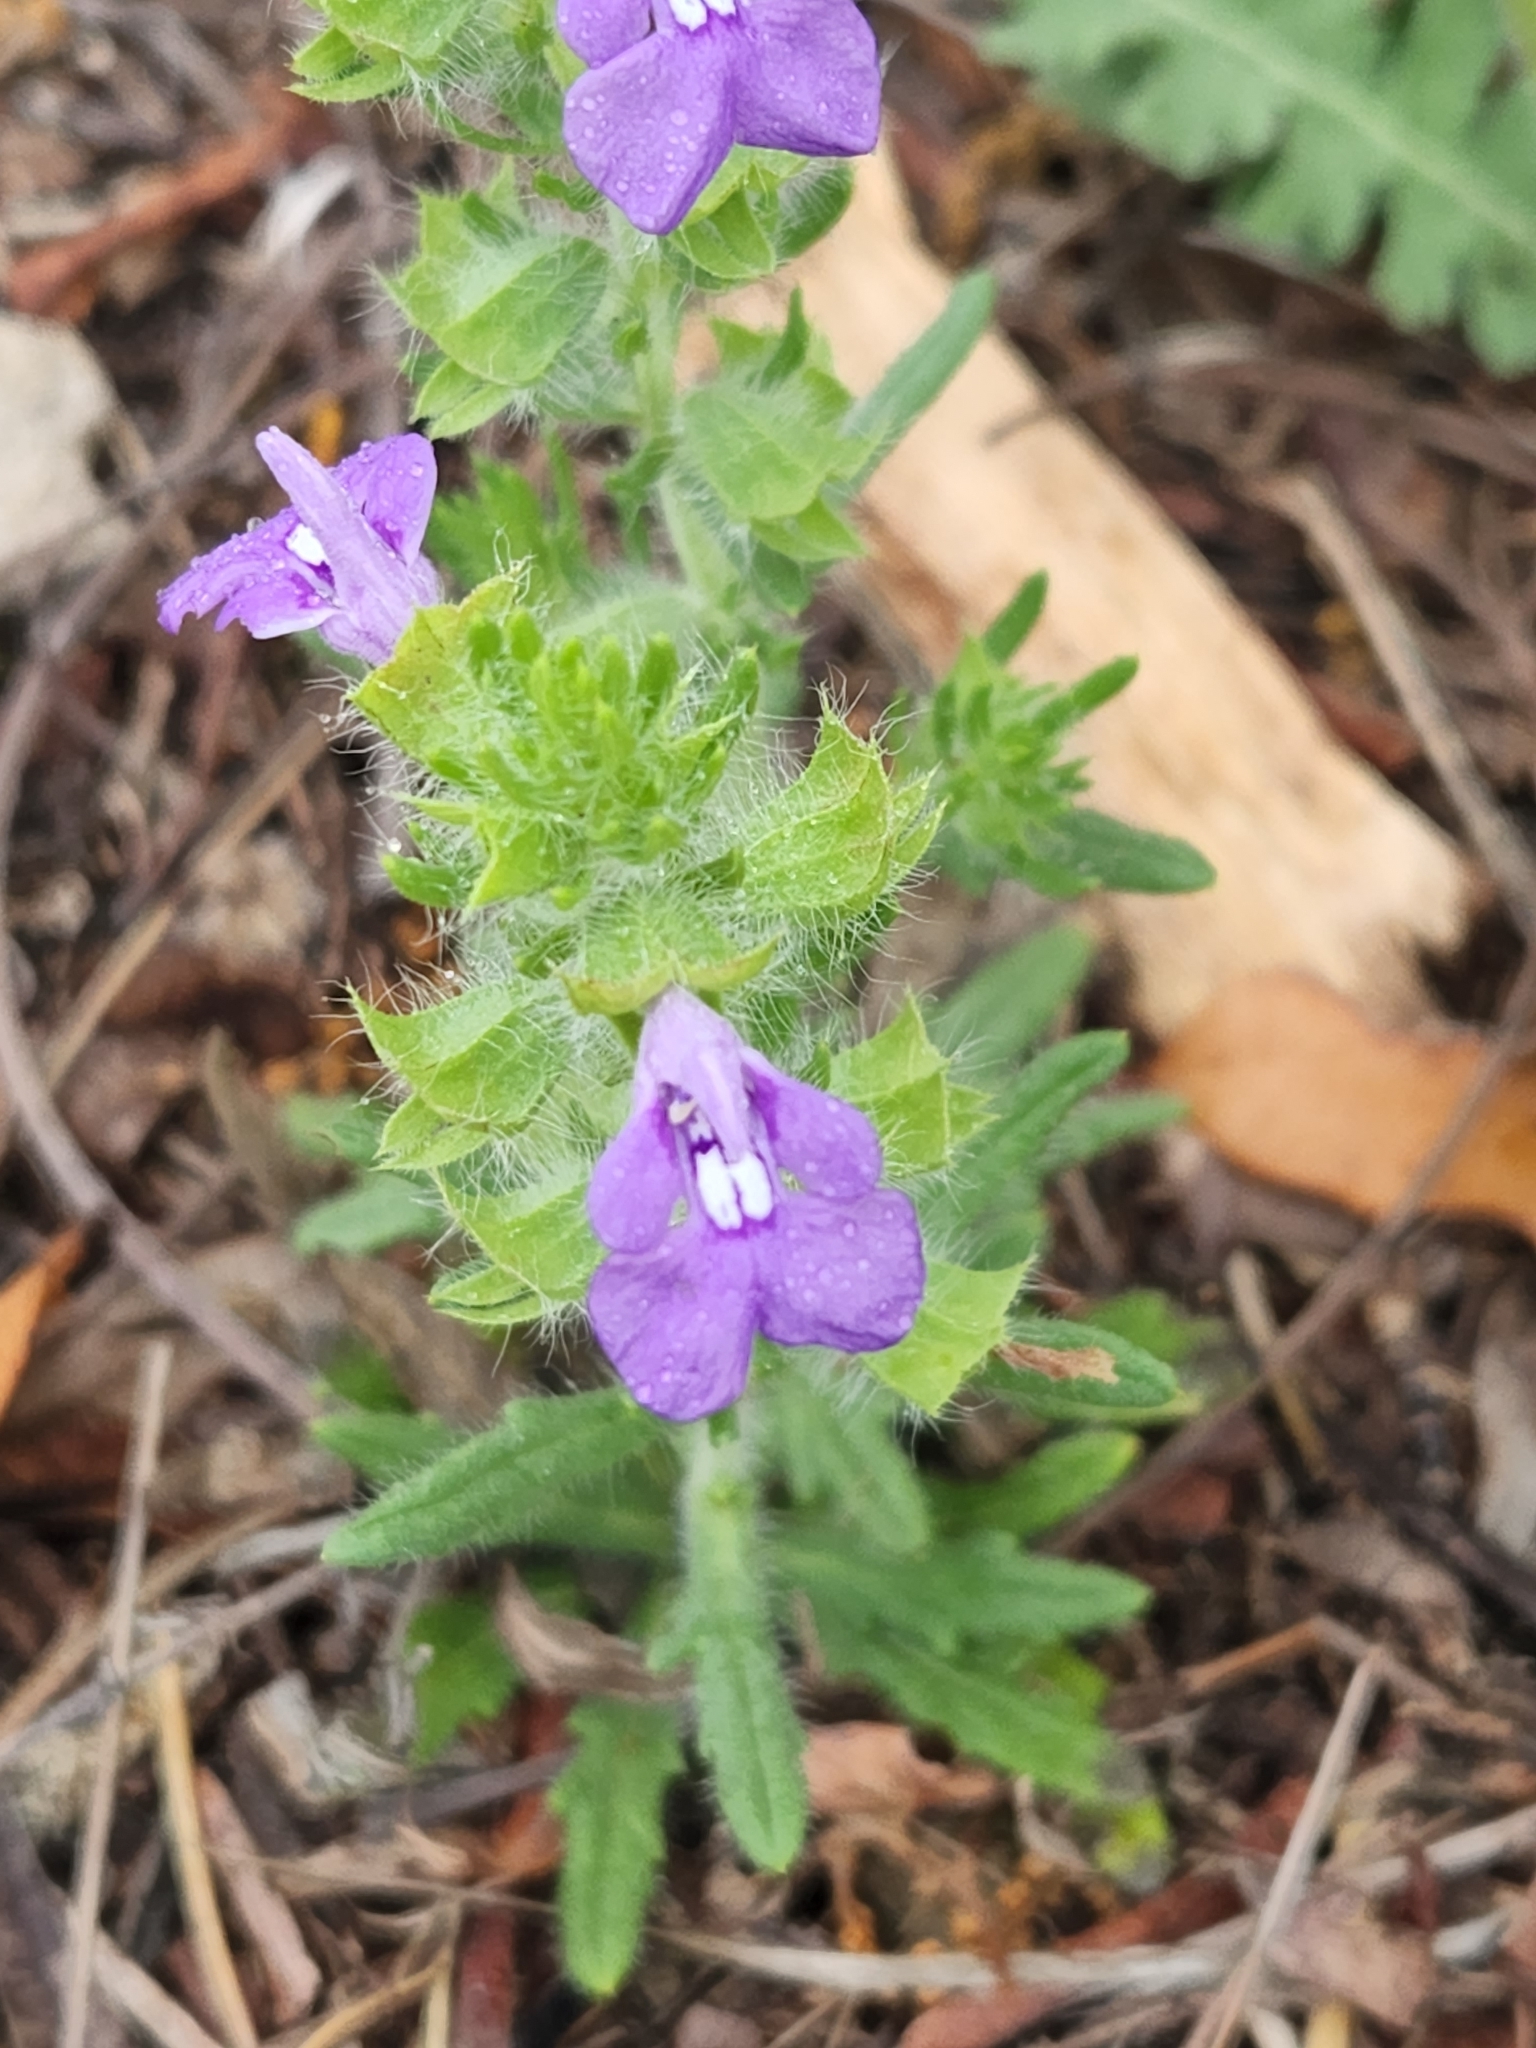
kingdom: Plantae
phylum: Tracheophyta
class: Magnoliopsida
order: Lamiales
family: Lamiaceae
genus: Salvia
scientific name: Salvia texana
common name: Texas sage
